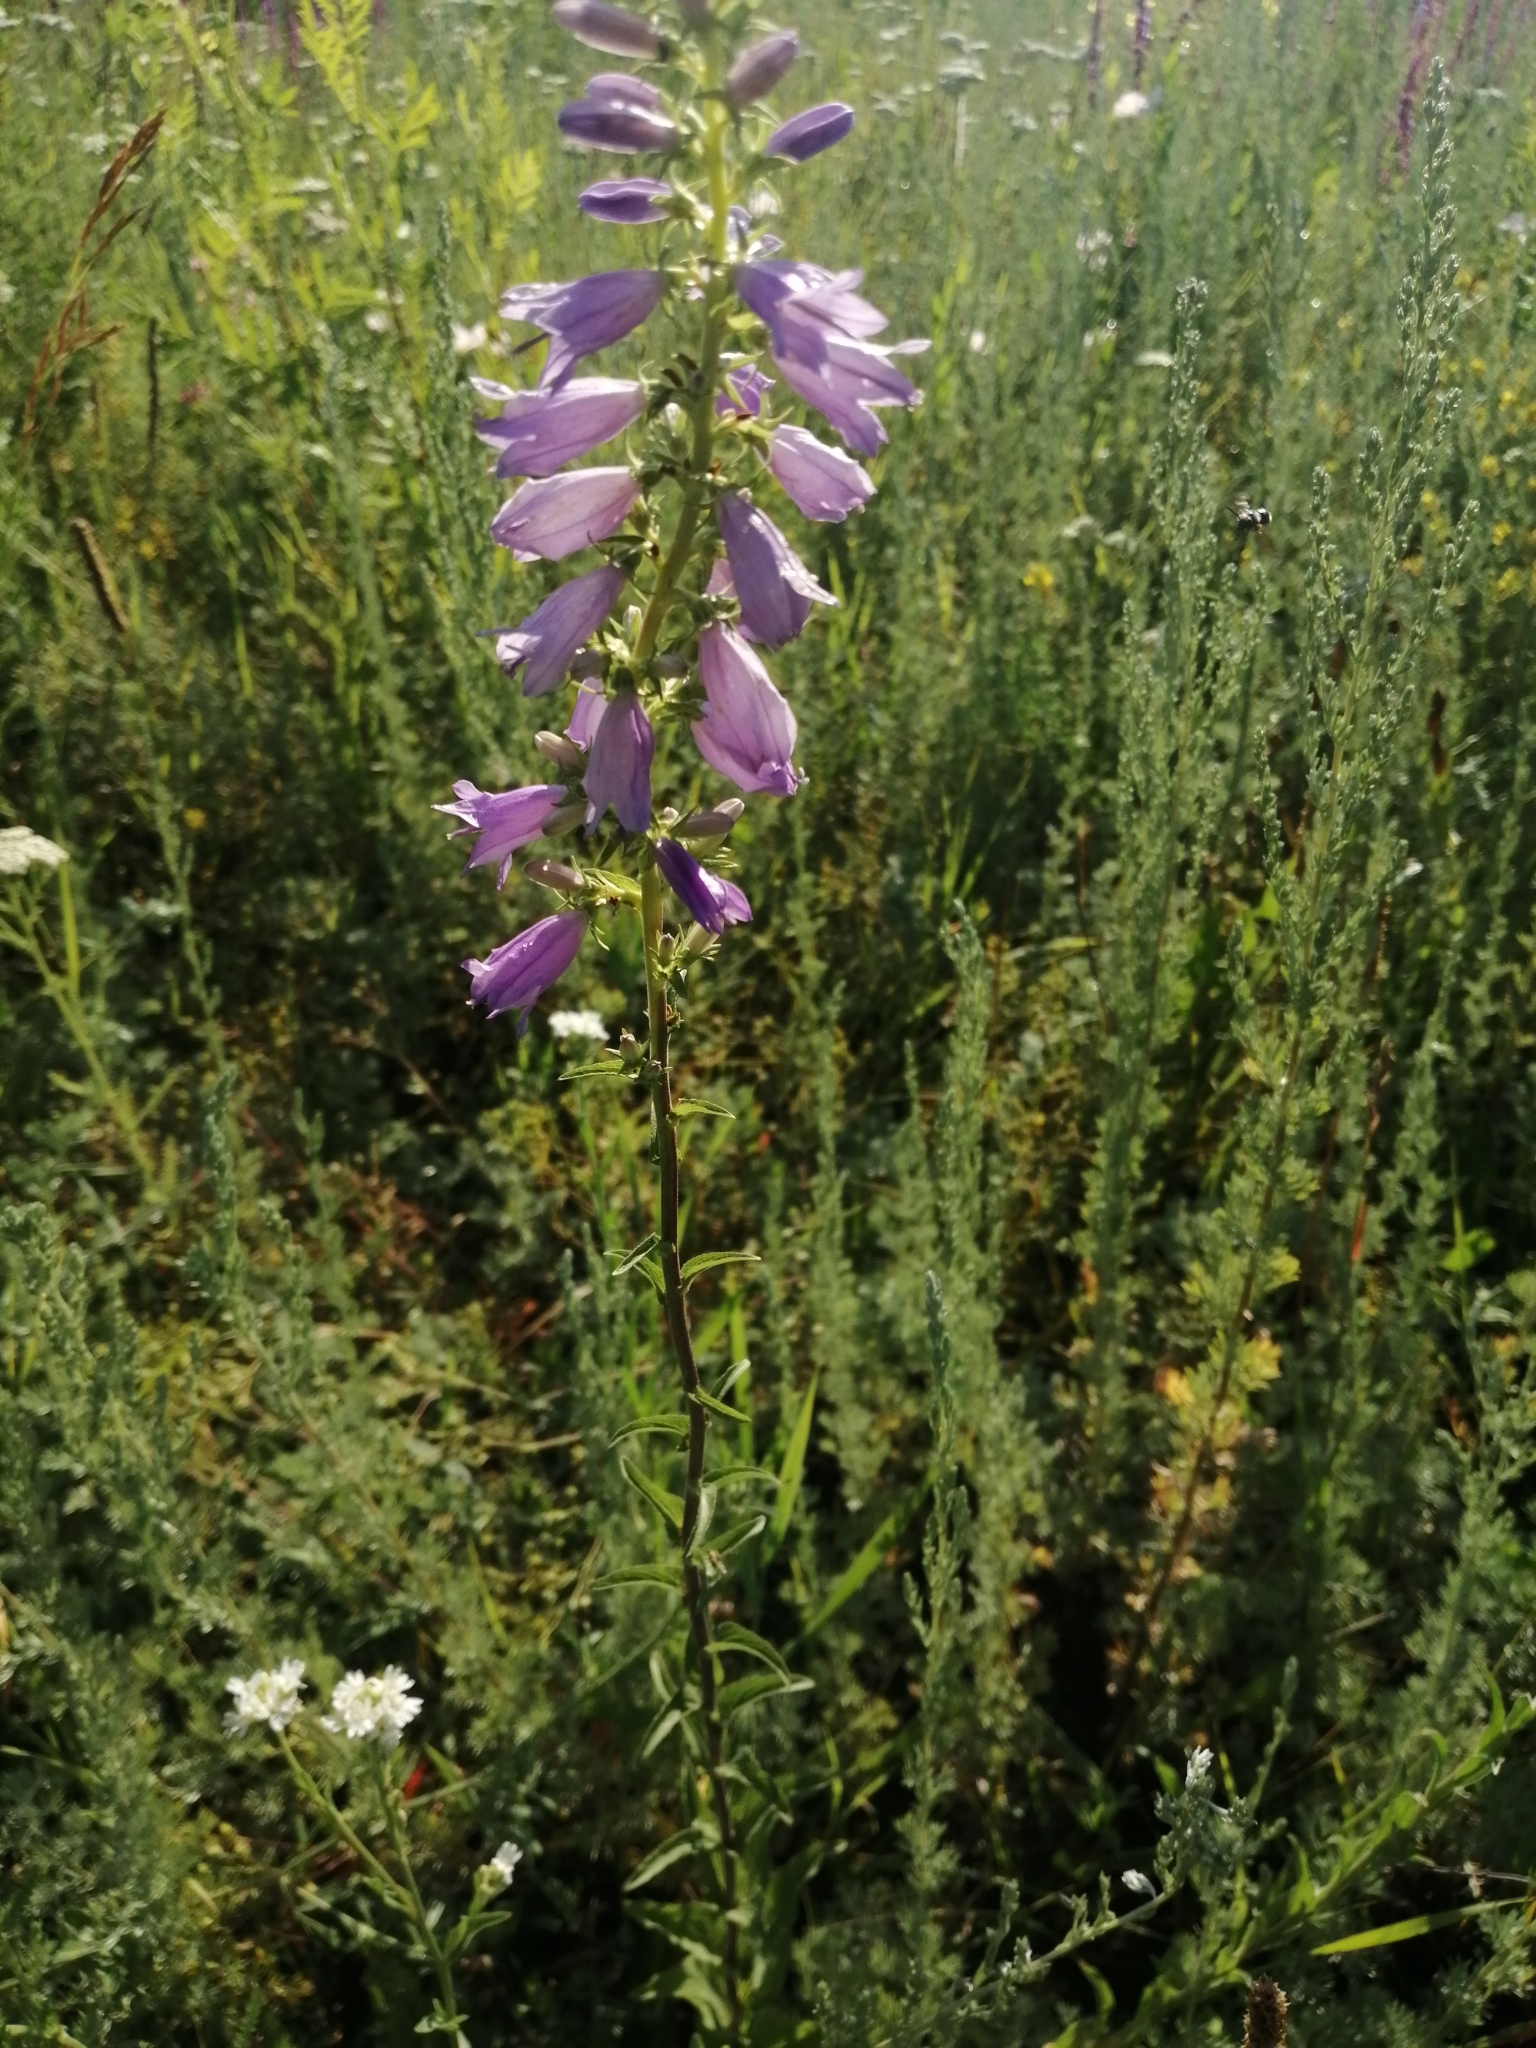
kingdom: Plantae
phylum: Tracheophyta
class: Magnoliopsida
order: Asterales
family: Campanulaceae
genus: Campanula
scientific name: Campanula bononiensis
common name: Pale bellflower
